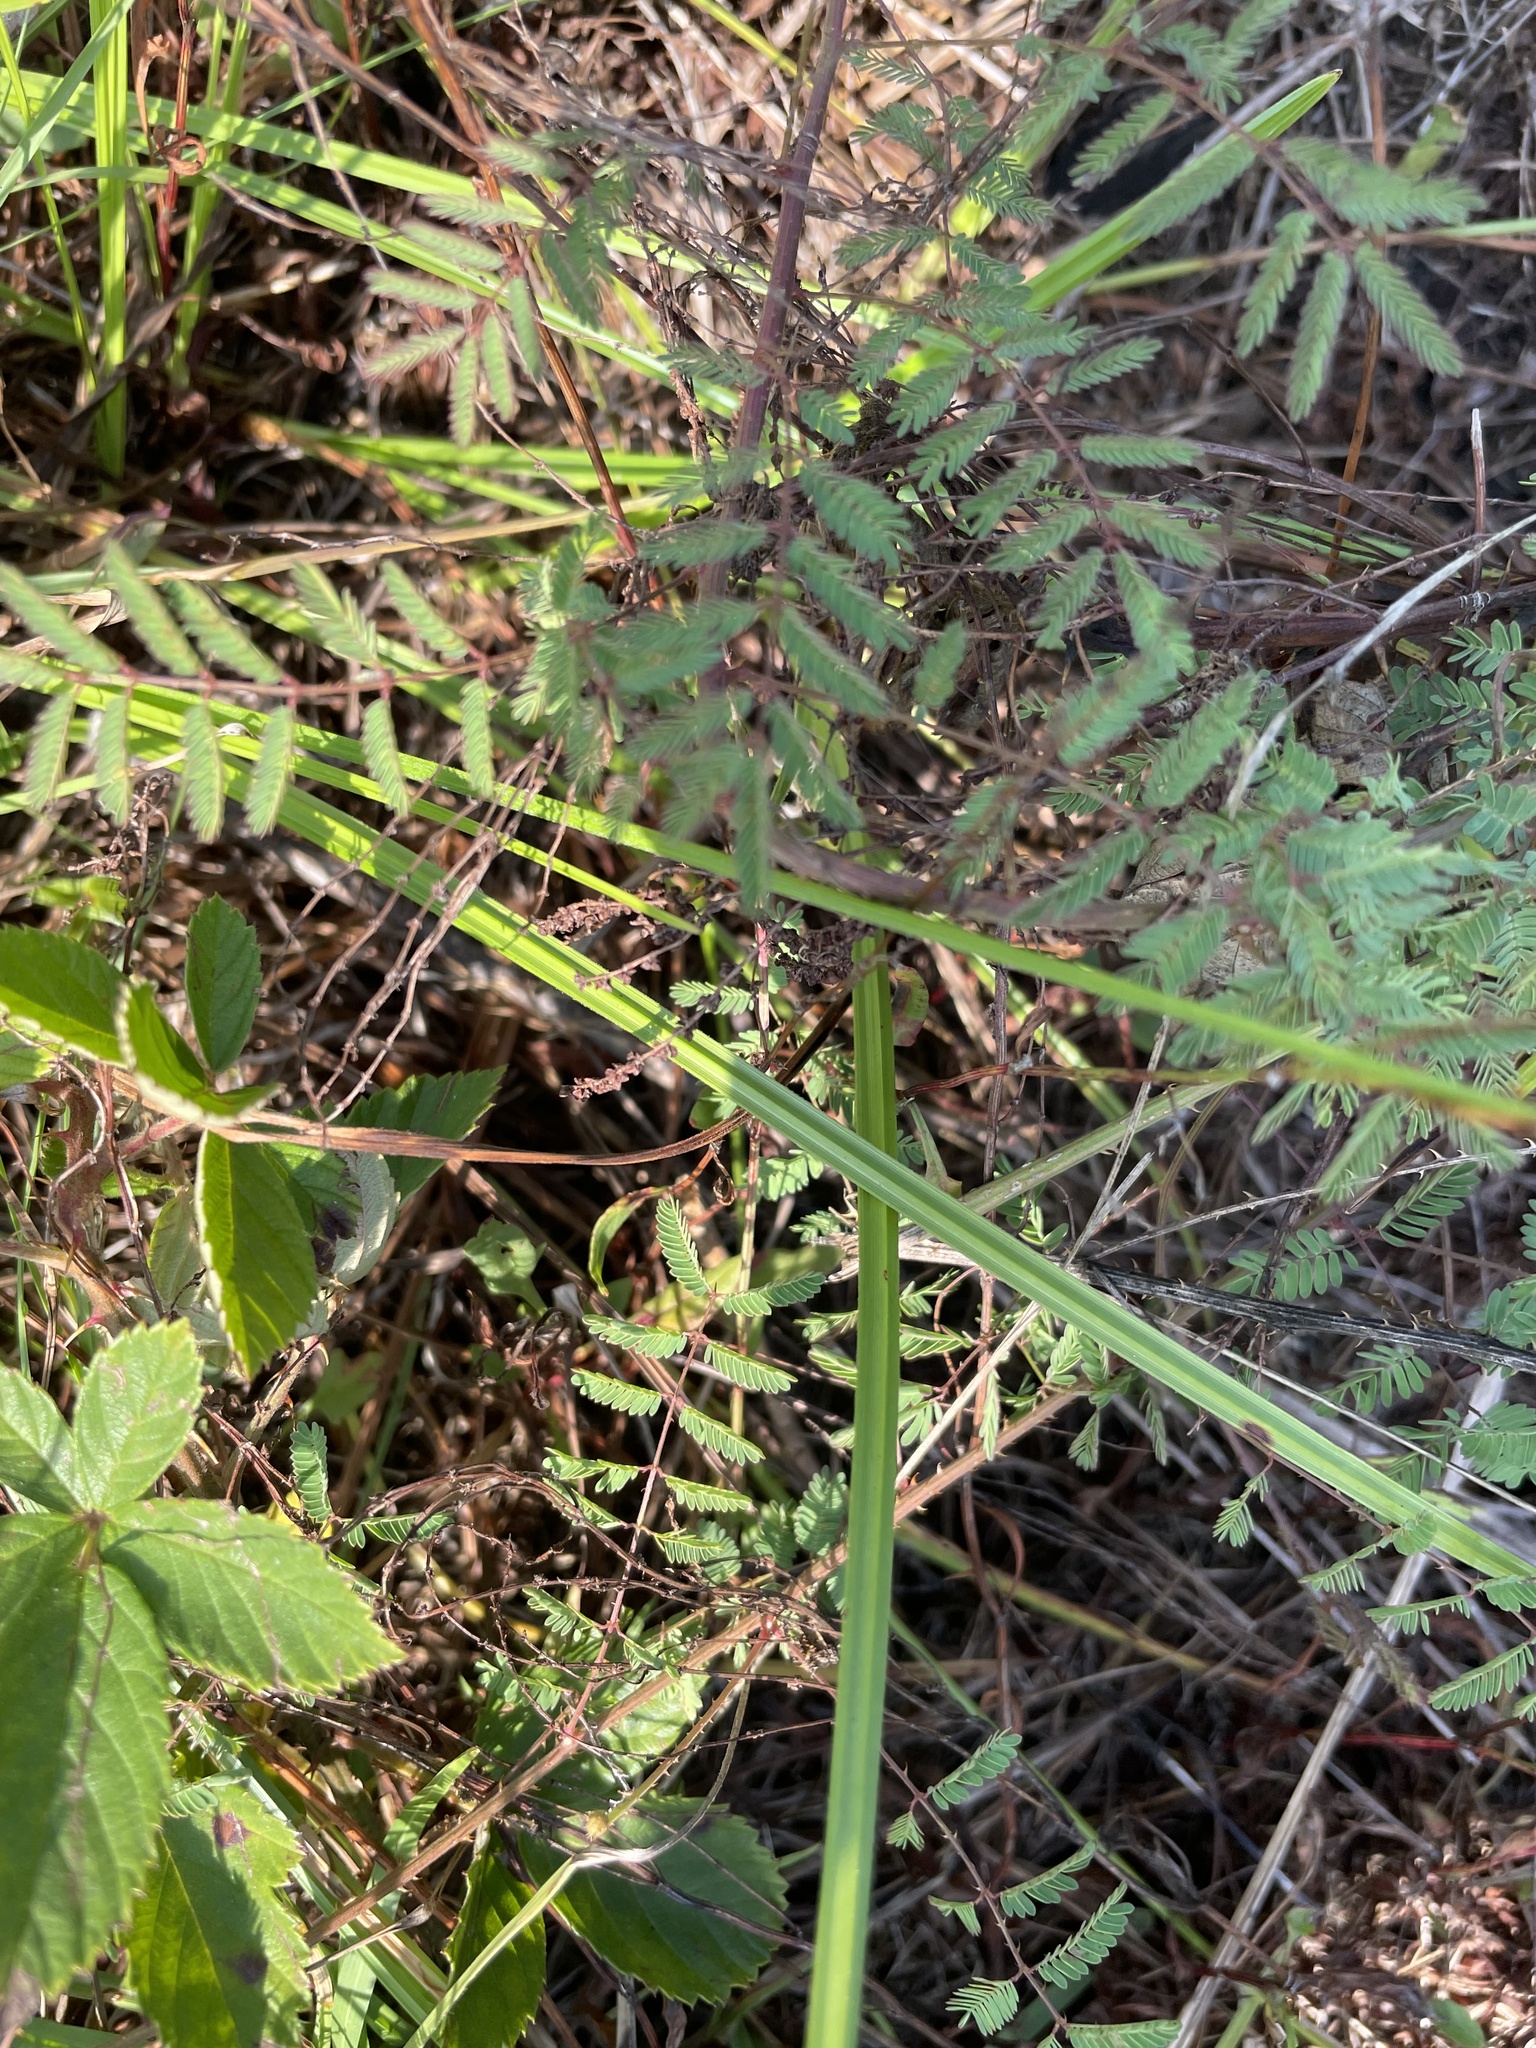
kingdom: Plantae
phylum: Tracheophyta
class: Magnoliopsida
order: Fabales
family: Fabaceae
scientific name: Fabaceae
